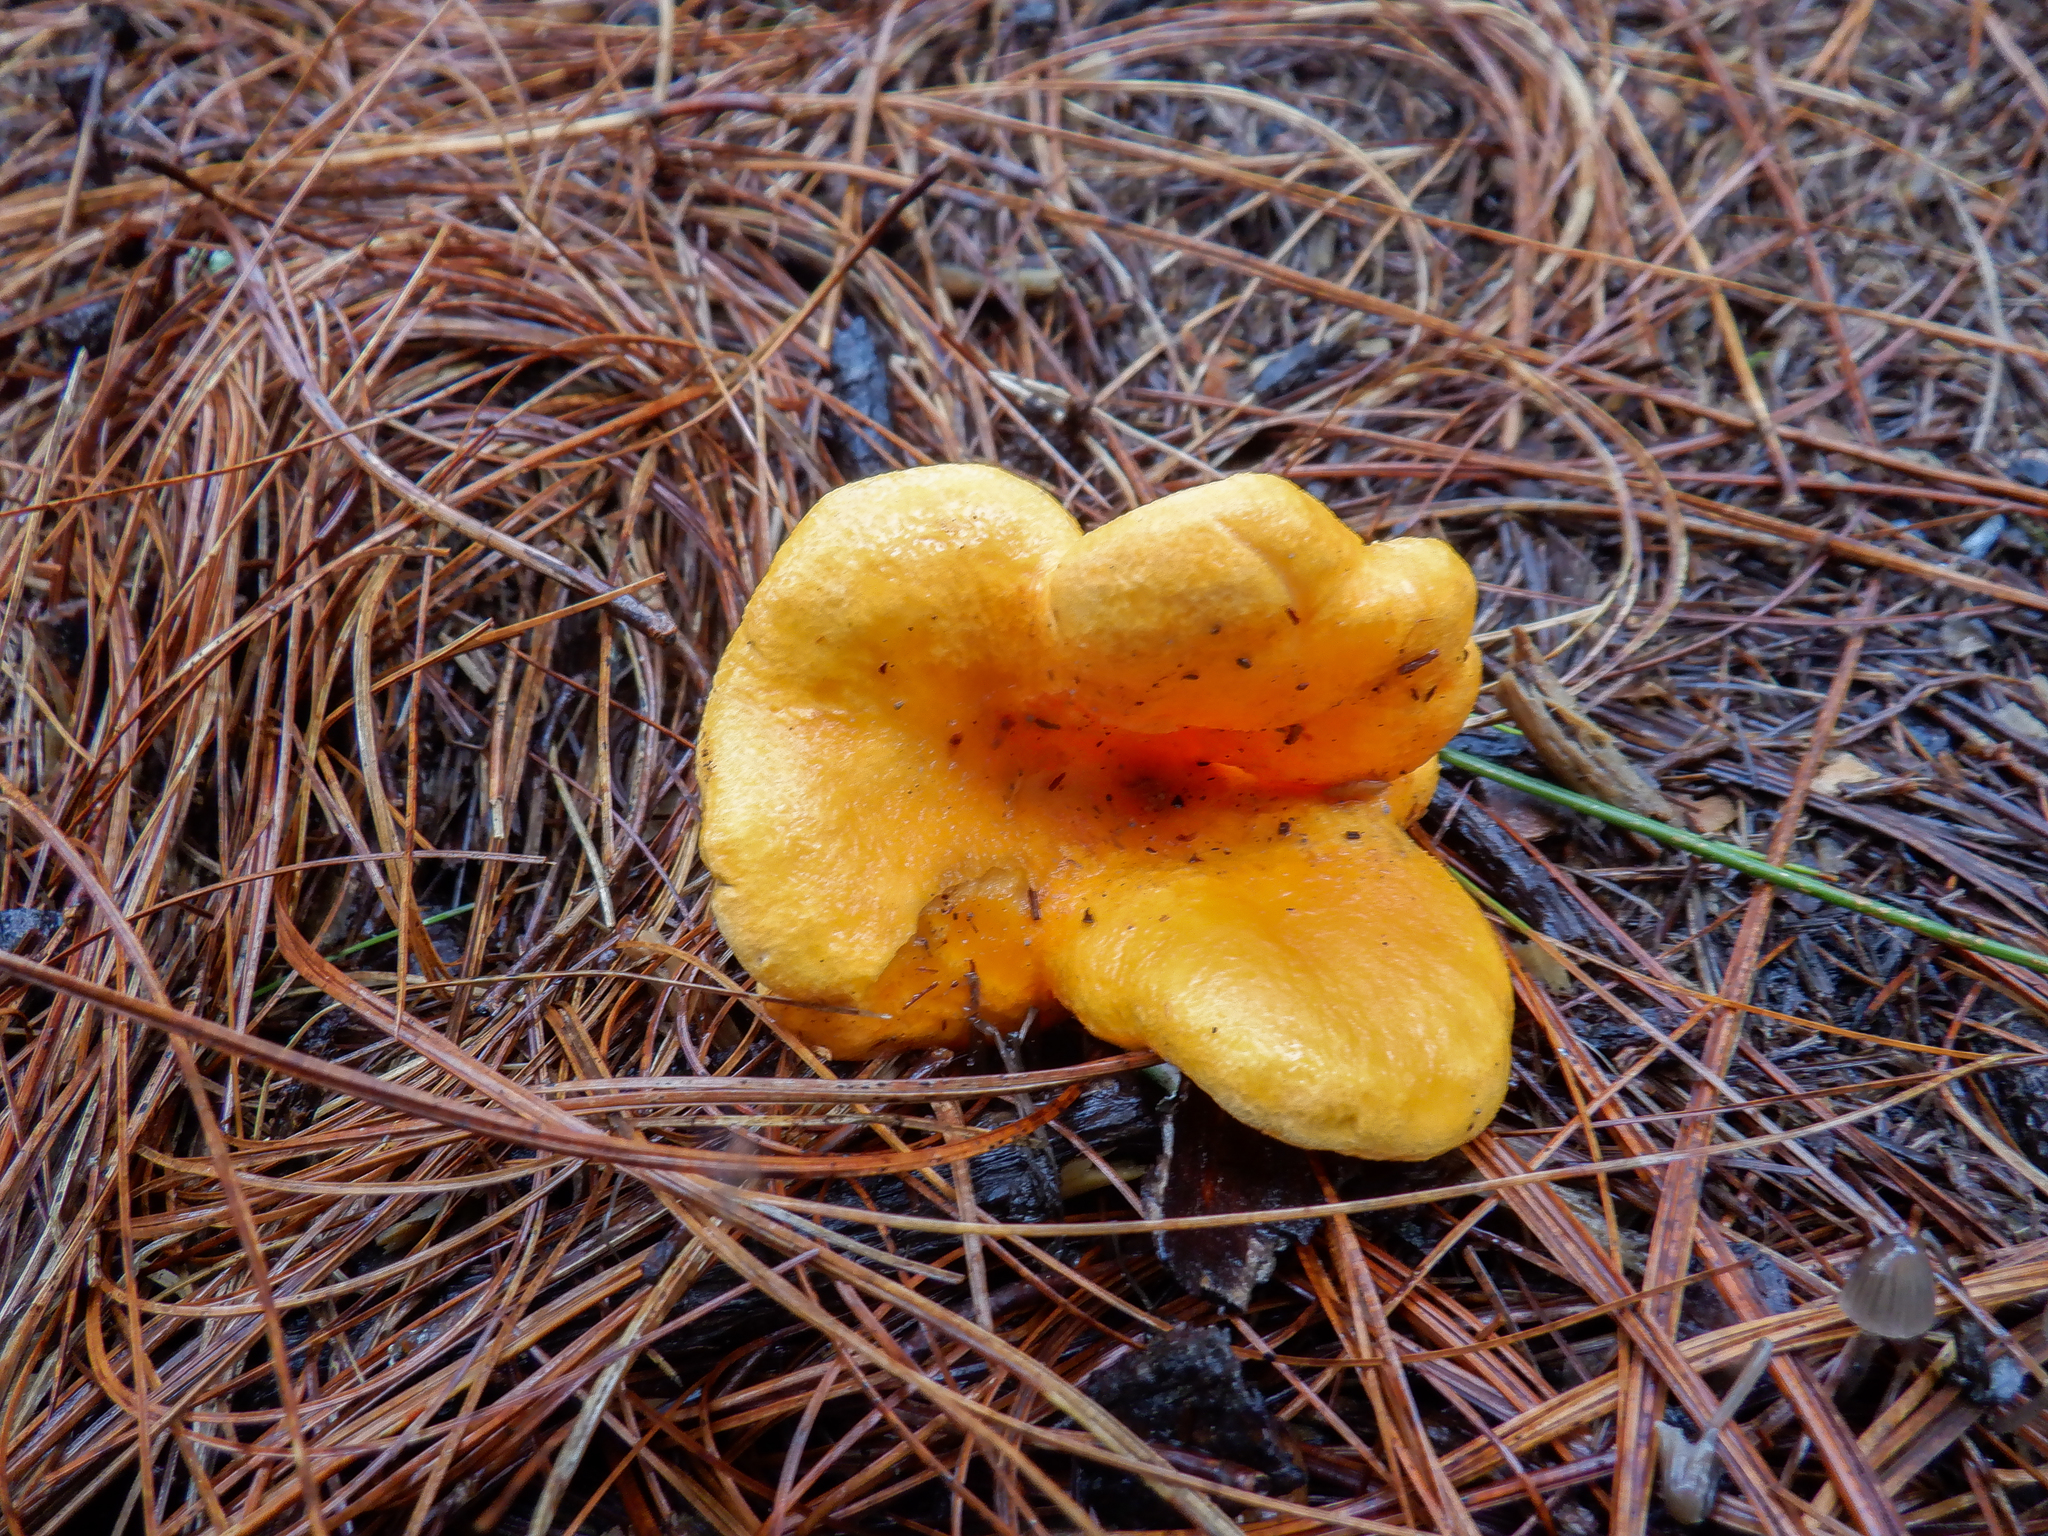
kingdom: Fungi
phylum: Basidiomycota
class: Agaricomycetes
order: Boletales
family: Hygrophoropsidaceae
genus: Hygrophoropsis
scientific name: Hygrophoropsis aurantiaca
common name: False chanterelle
